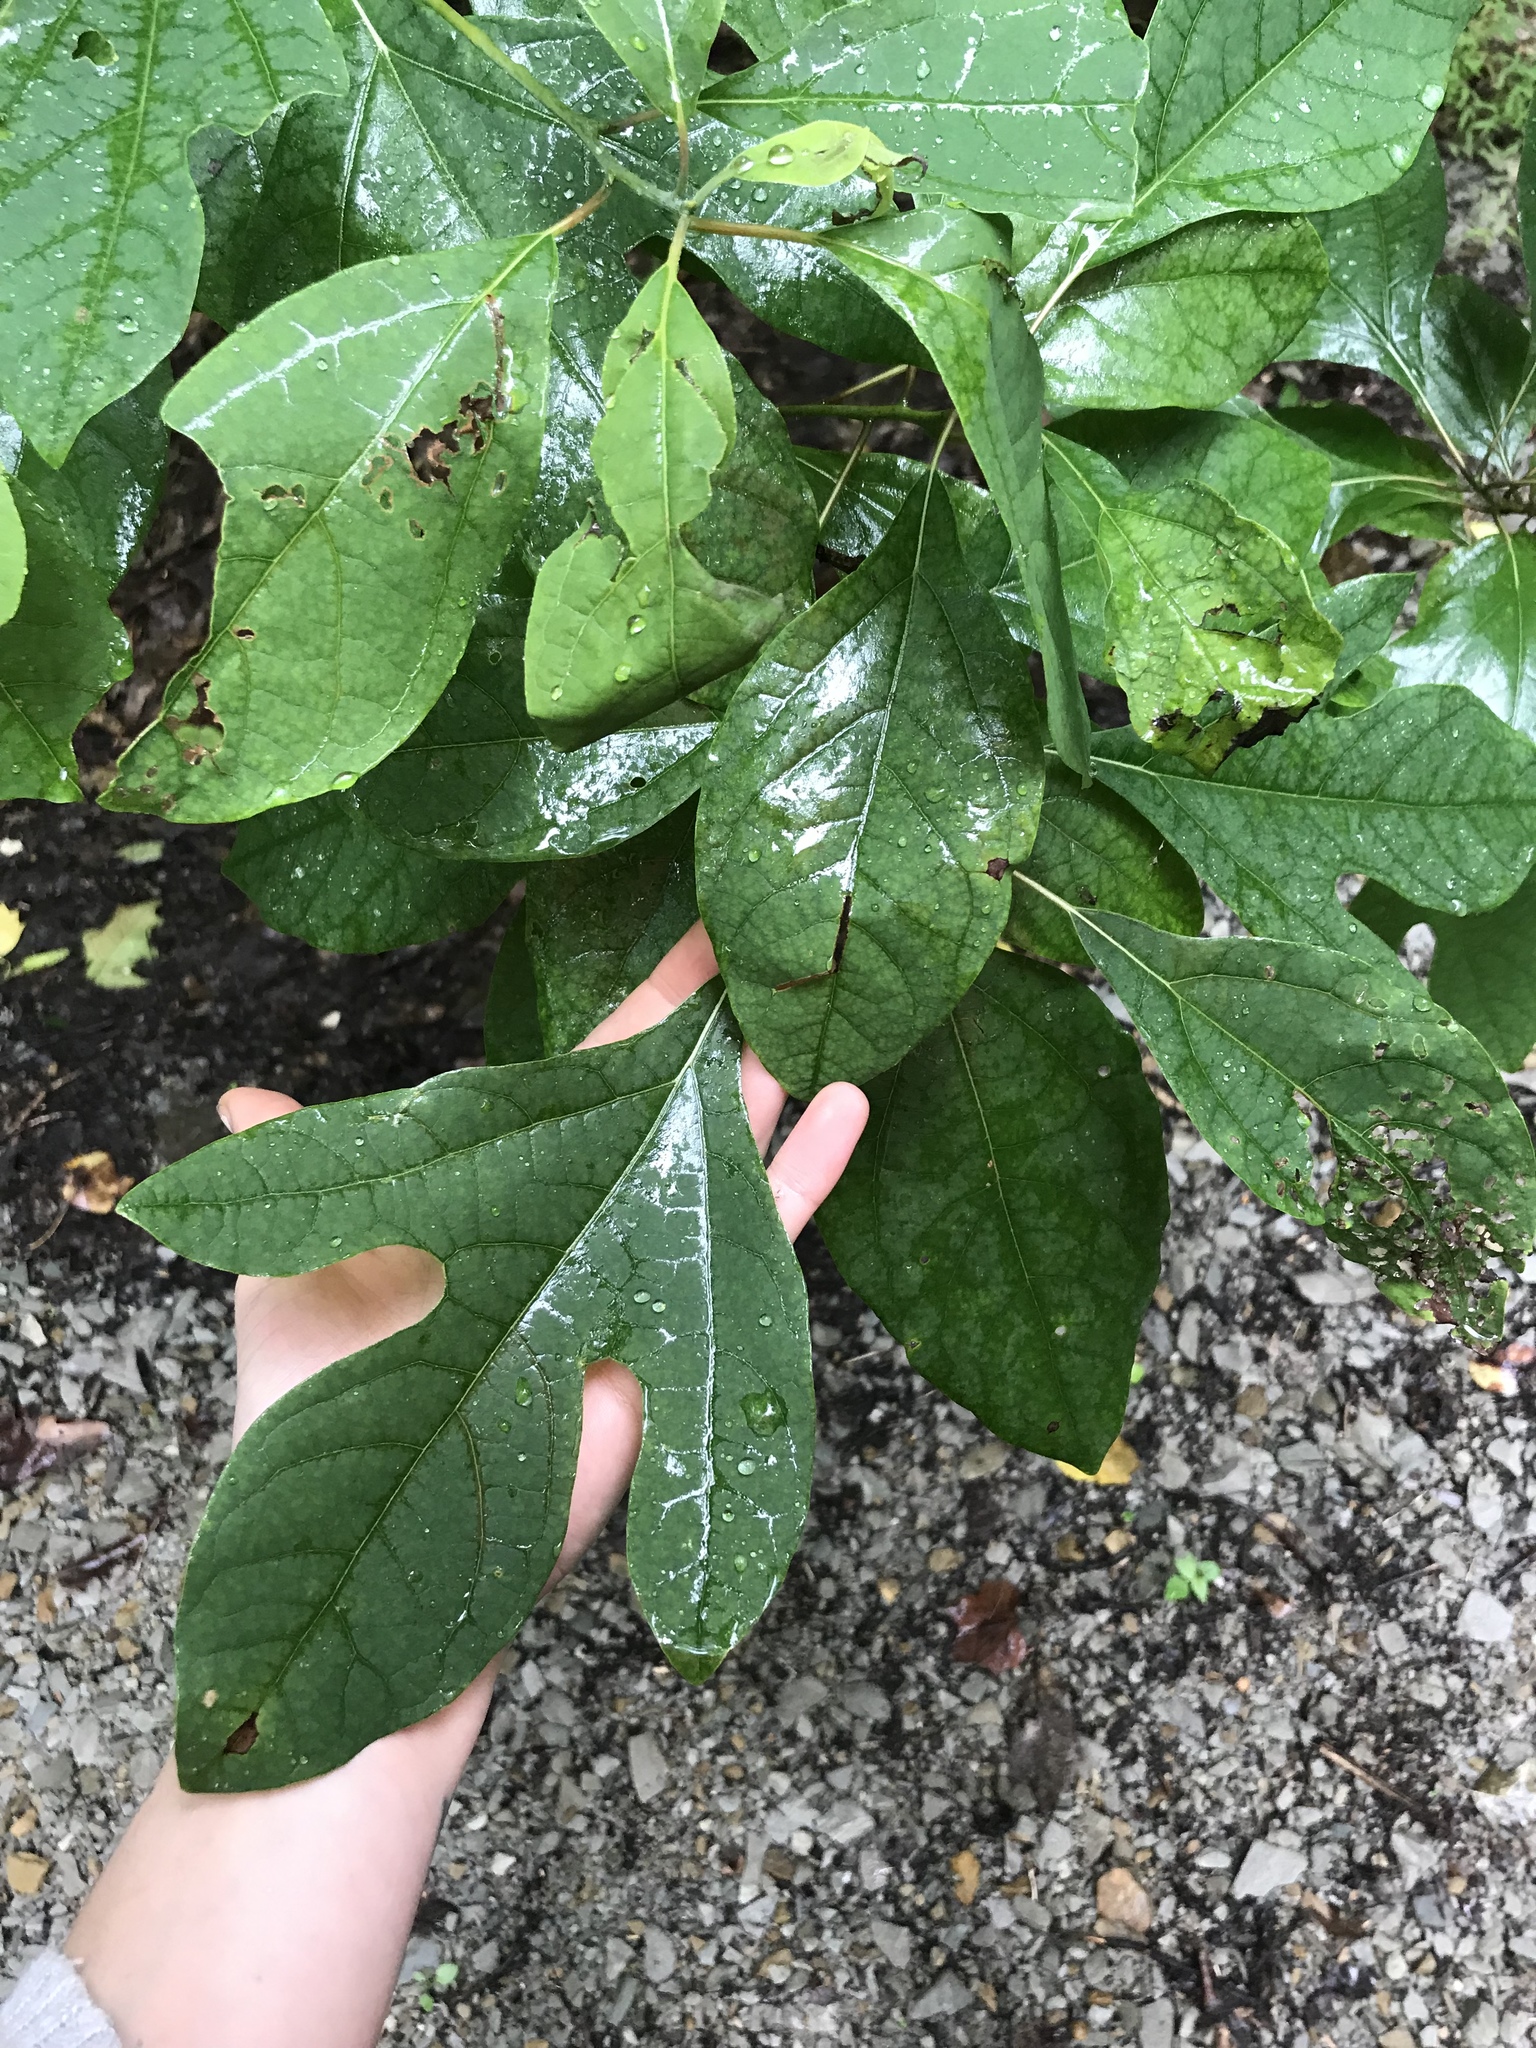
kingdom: Plantae
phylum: Tracheophyta
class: Magnoliopsida
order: Laurales
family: Lauraceae
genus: Sassafras
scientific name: Sassafras albidum
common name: Sassafras
